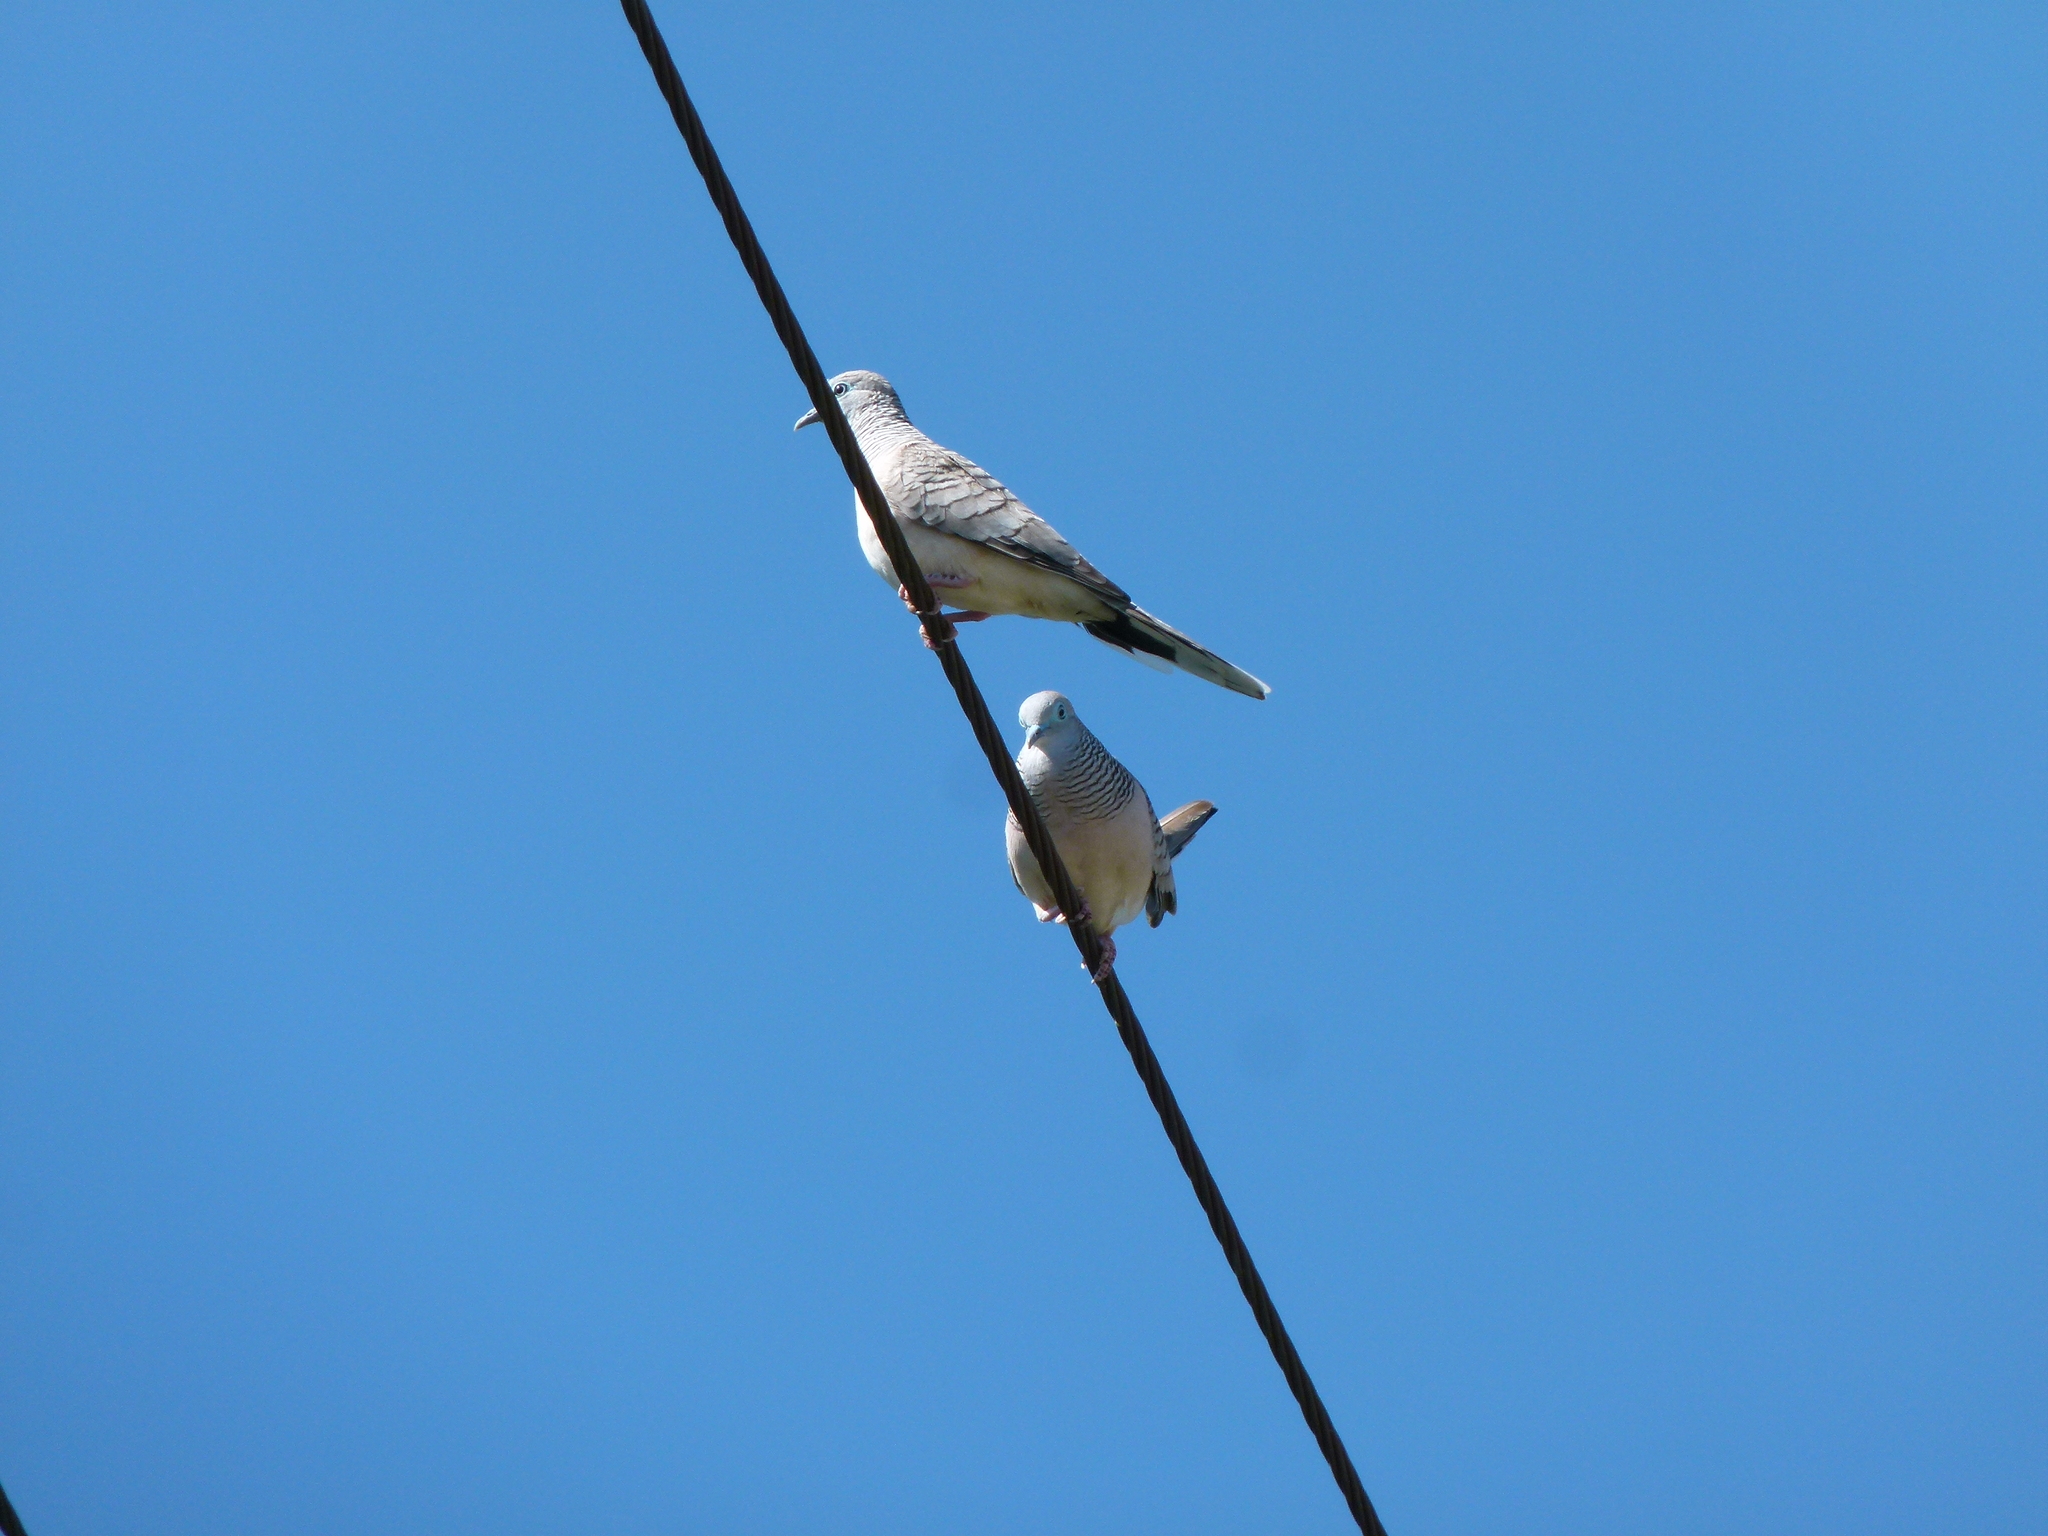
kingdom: Animalia
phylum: Chordata
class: Aves
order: Columbiformes
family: Columbidae
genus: Geopelia
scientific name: Geopelia placida
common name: Peaceful dove
